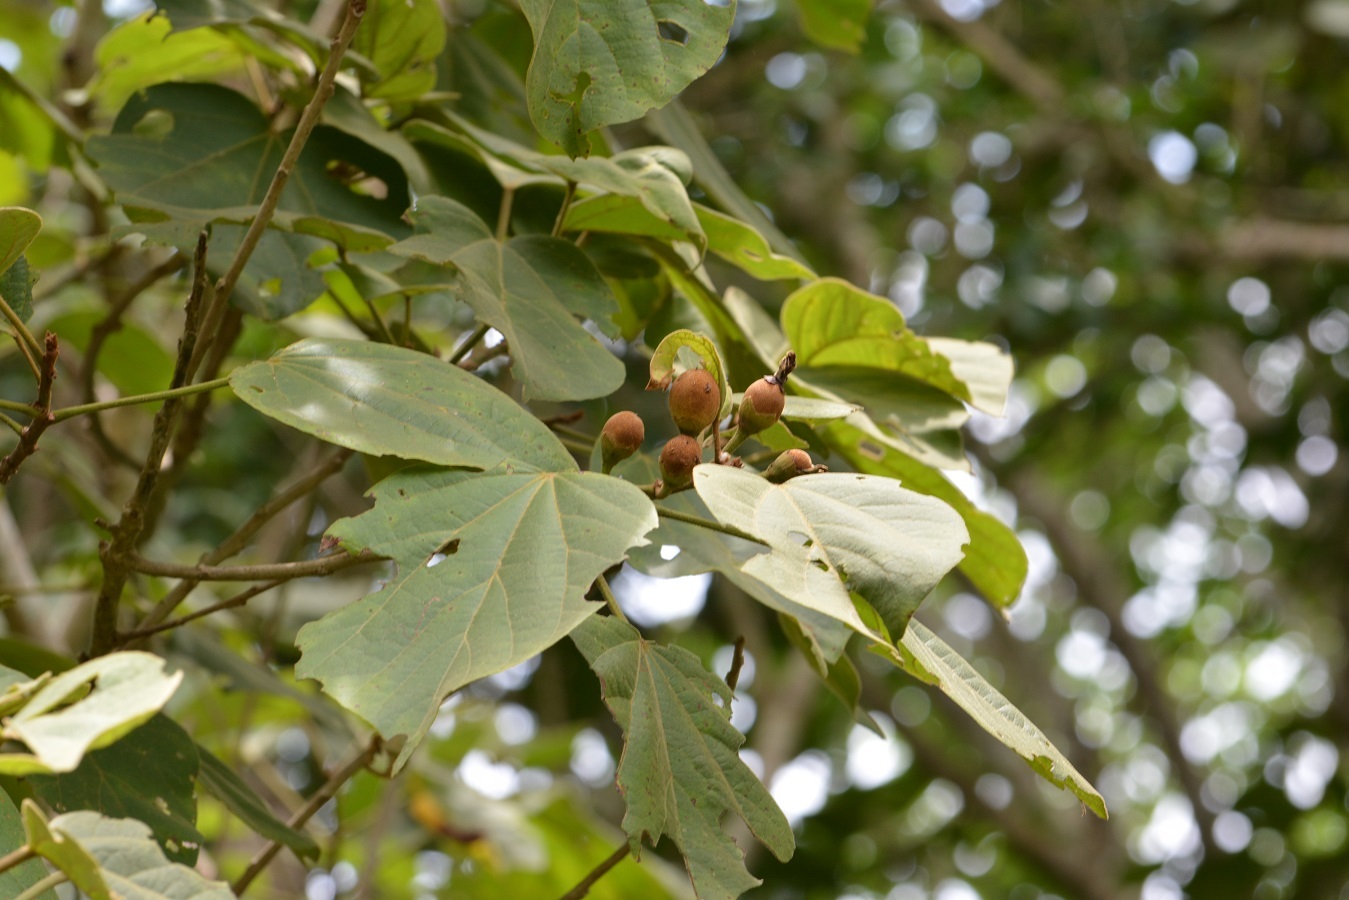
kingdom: Plantae
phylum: Tracheophyta
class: Magnoliopsida
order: Malvales
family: Malvaceae
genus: Hampea
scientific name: Hampea mexicana
